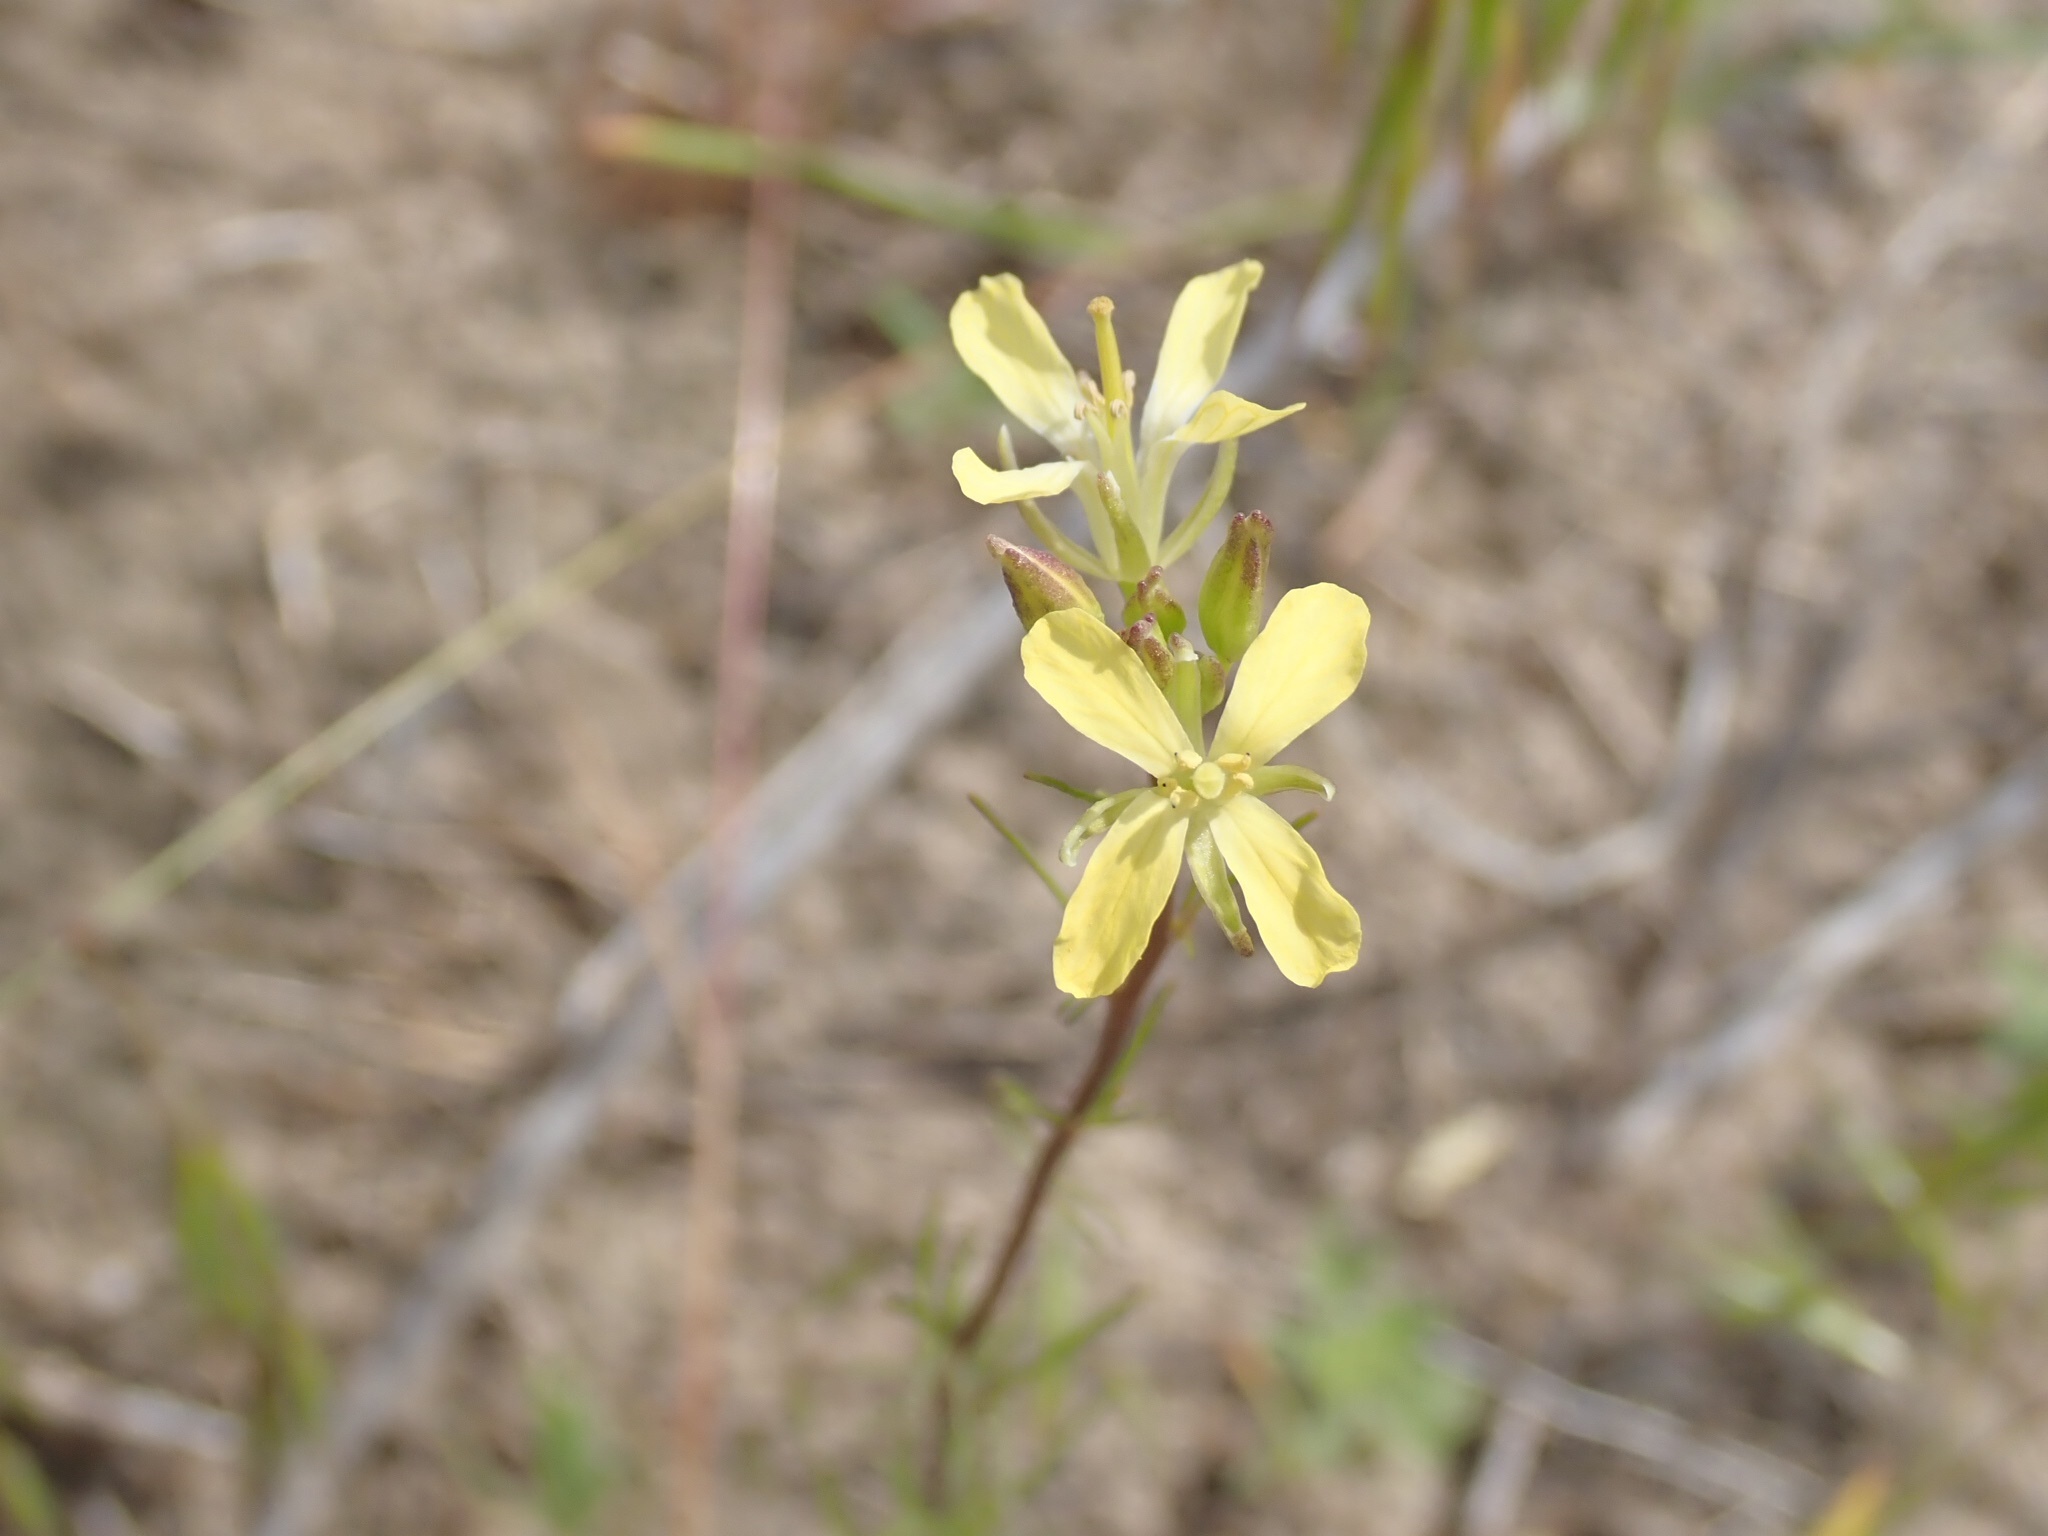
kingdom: Plantae
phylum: Tracheophyta
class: Magnoliopsida
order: Brassicales
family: Brassicaceae
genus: Sisymbrium
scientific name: Sisymbrium altissimum
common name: Tall rocket
